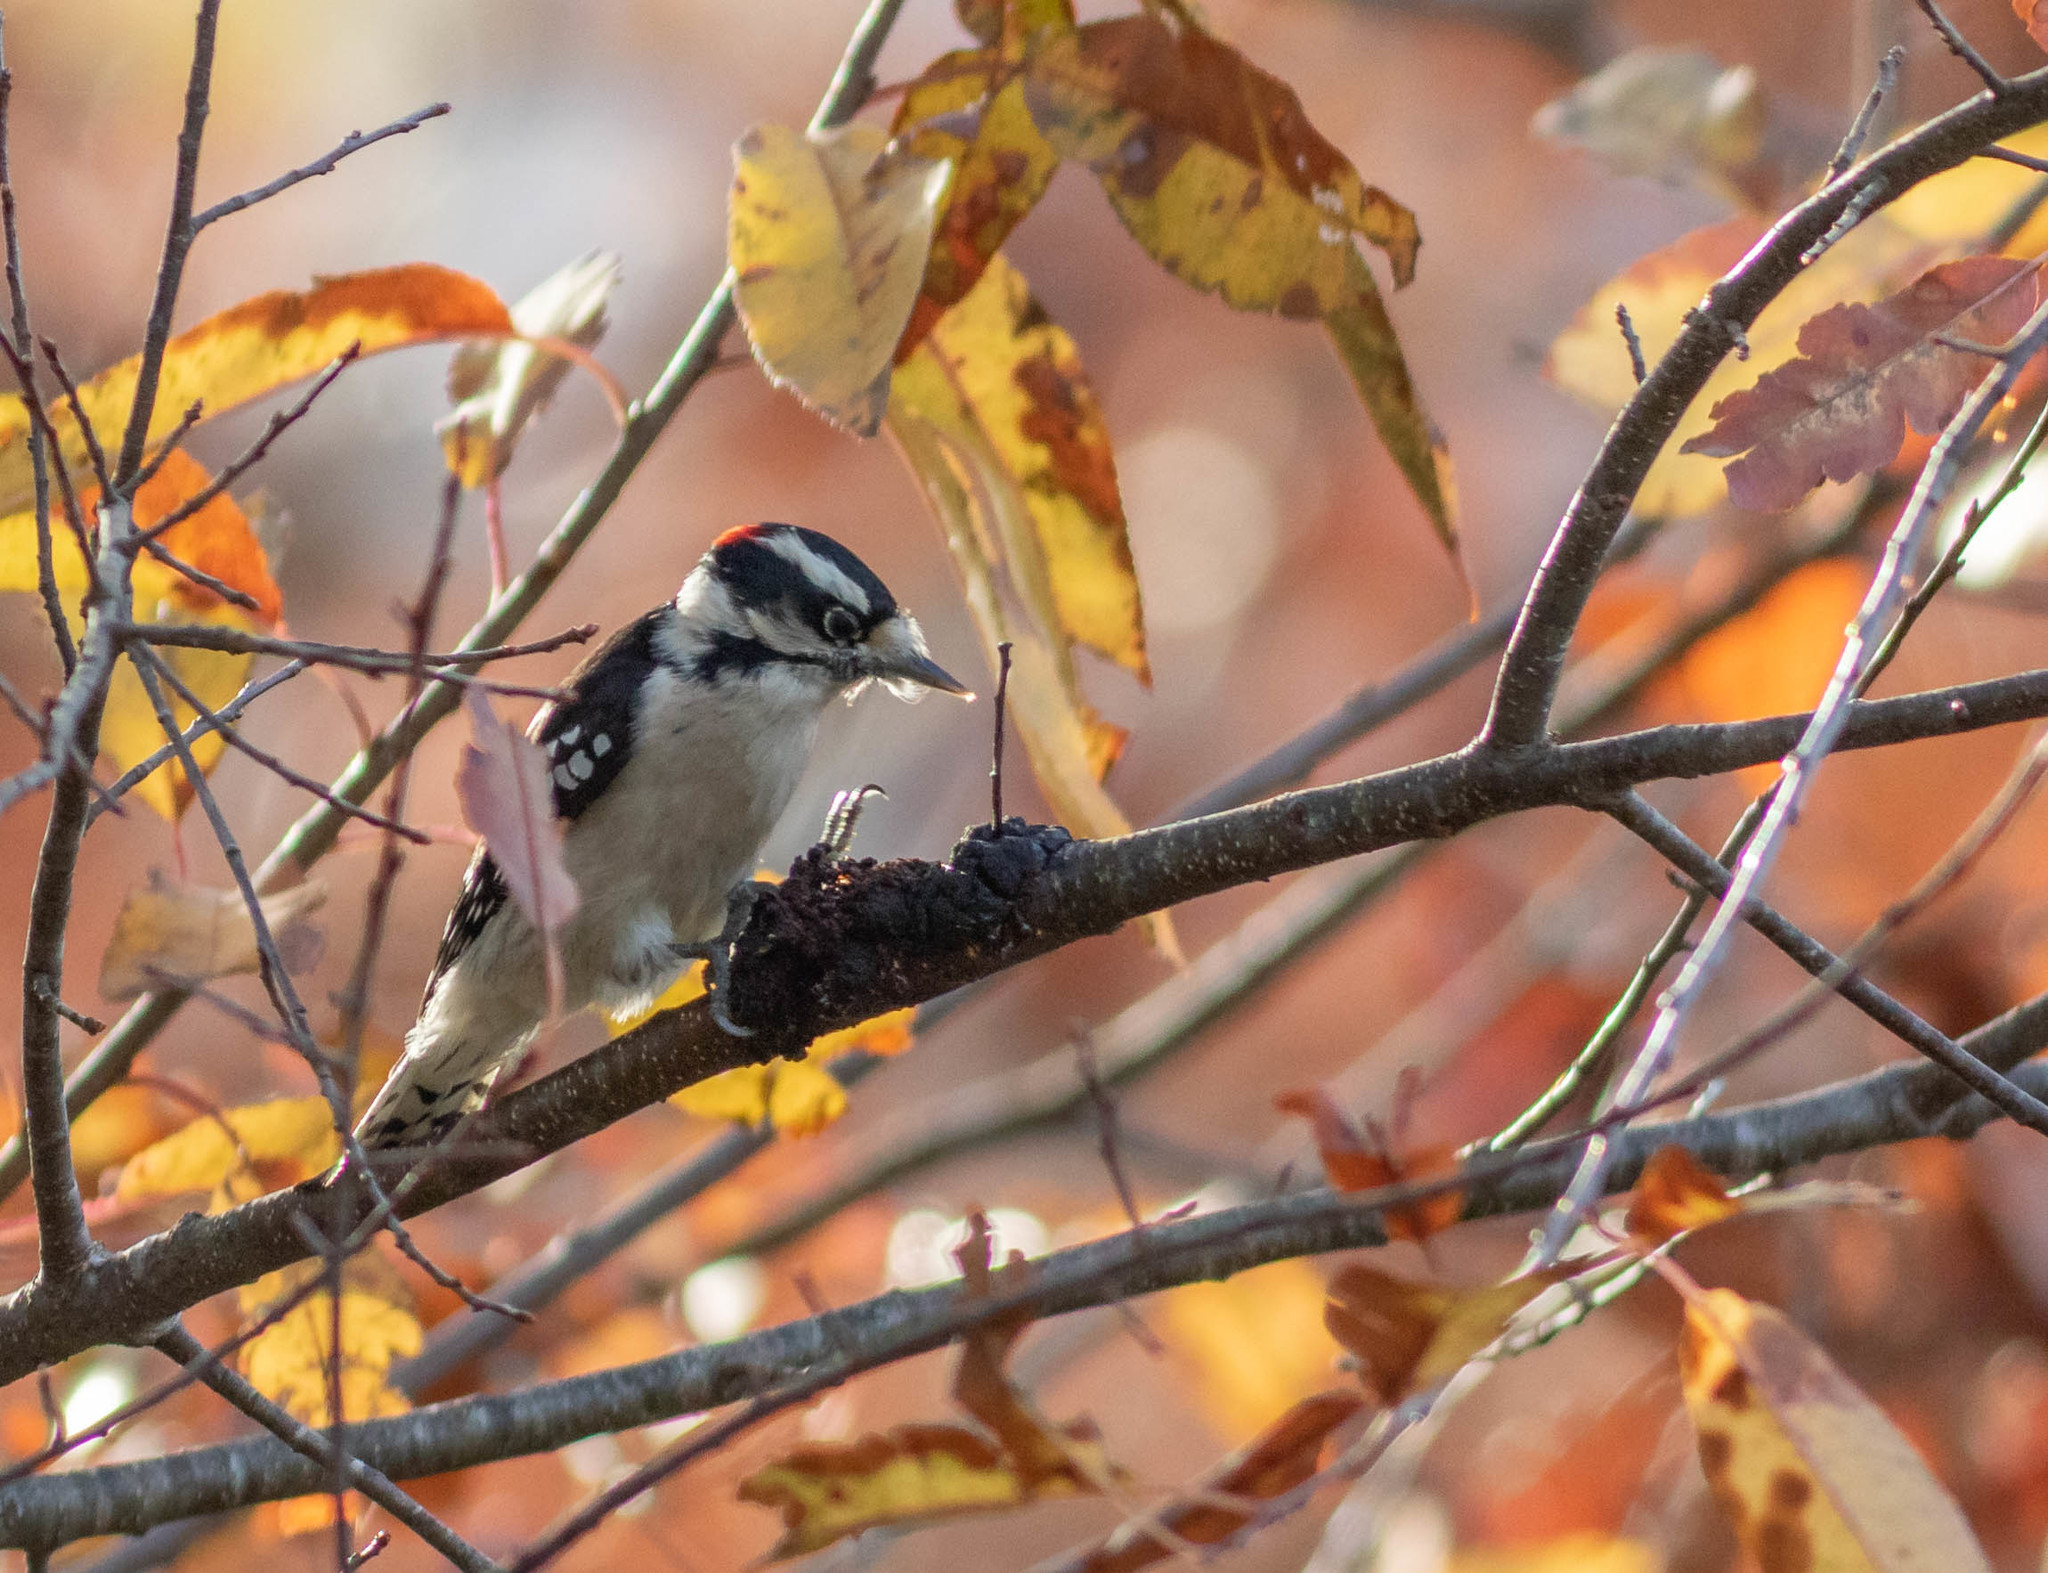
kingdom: Animalia
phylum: Chordata
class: Aves
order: Piciformes
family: Picidae
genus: Dryobates
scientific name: Dryobates pubescens
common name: Downy woodpecker
